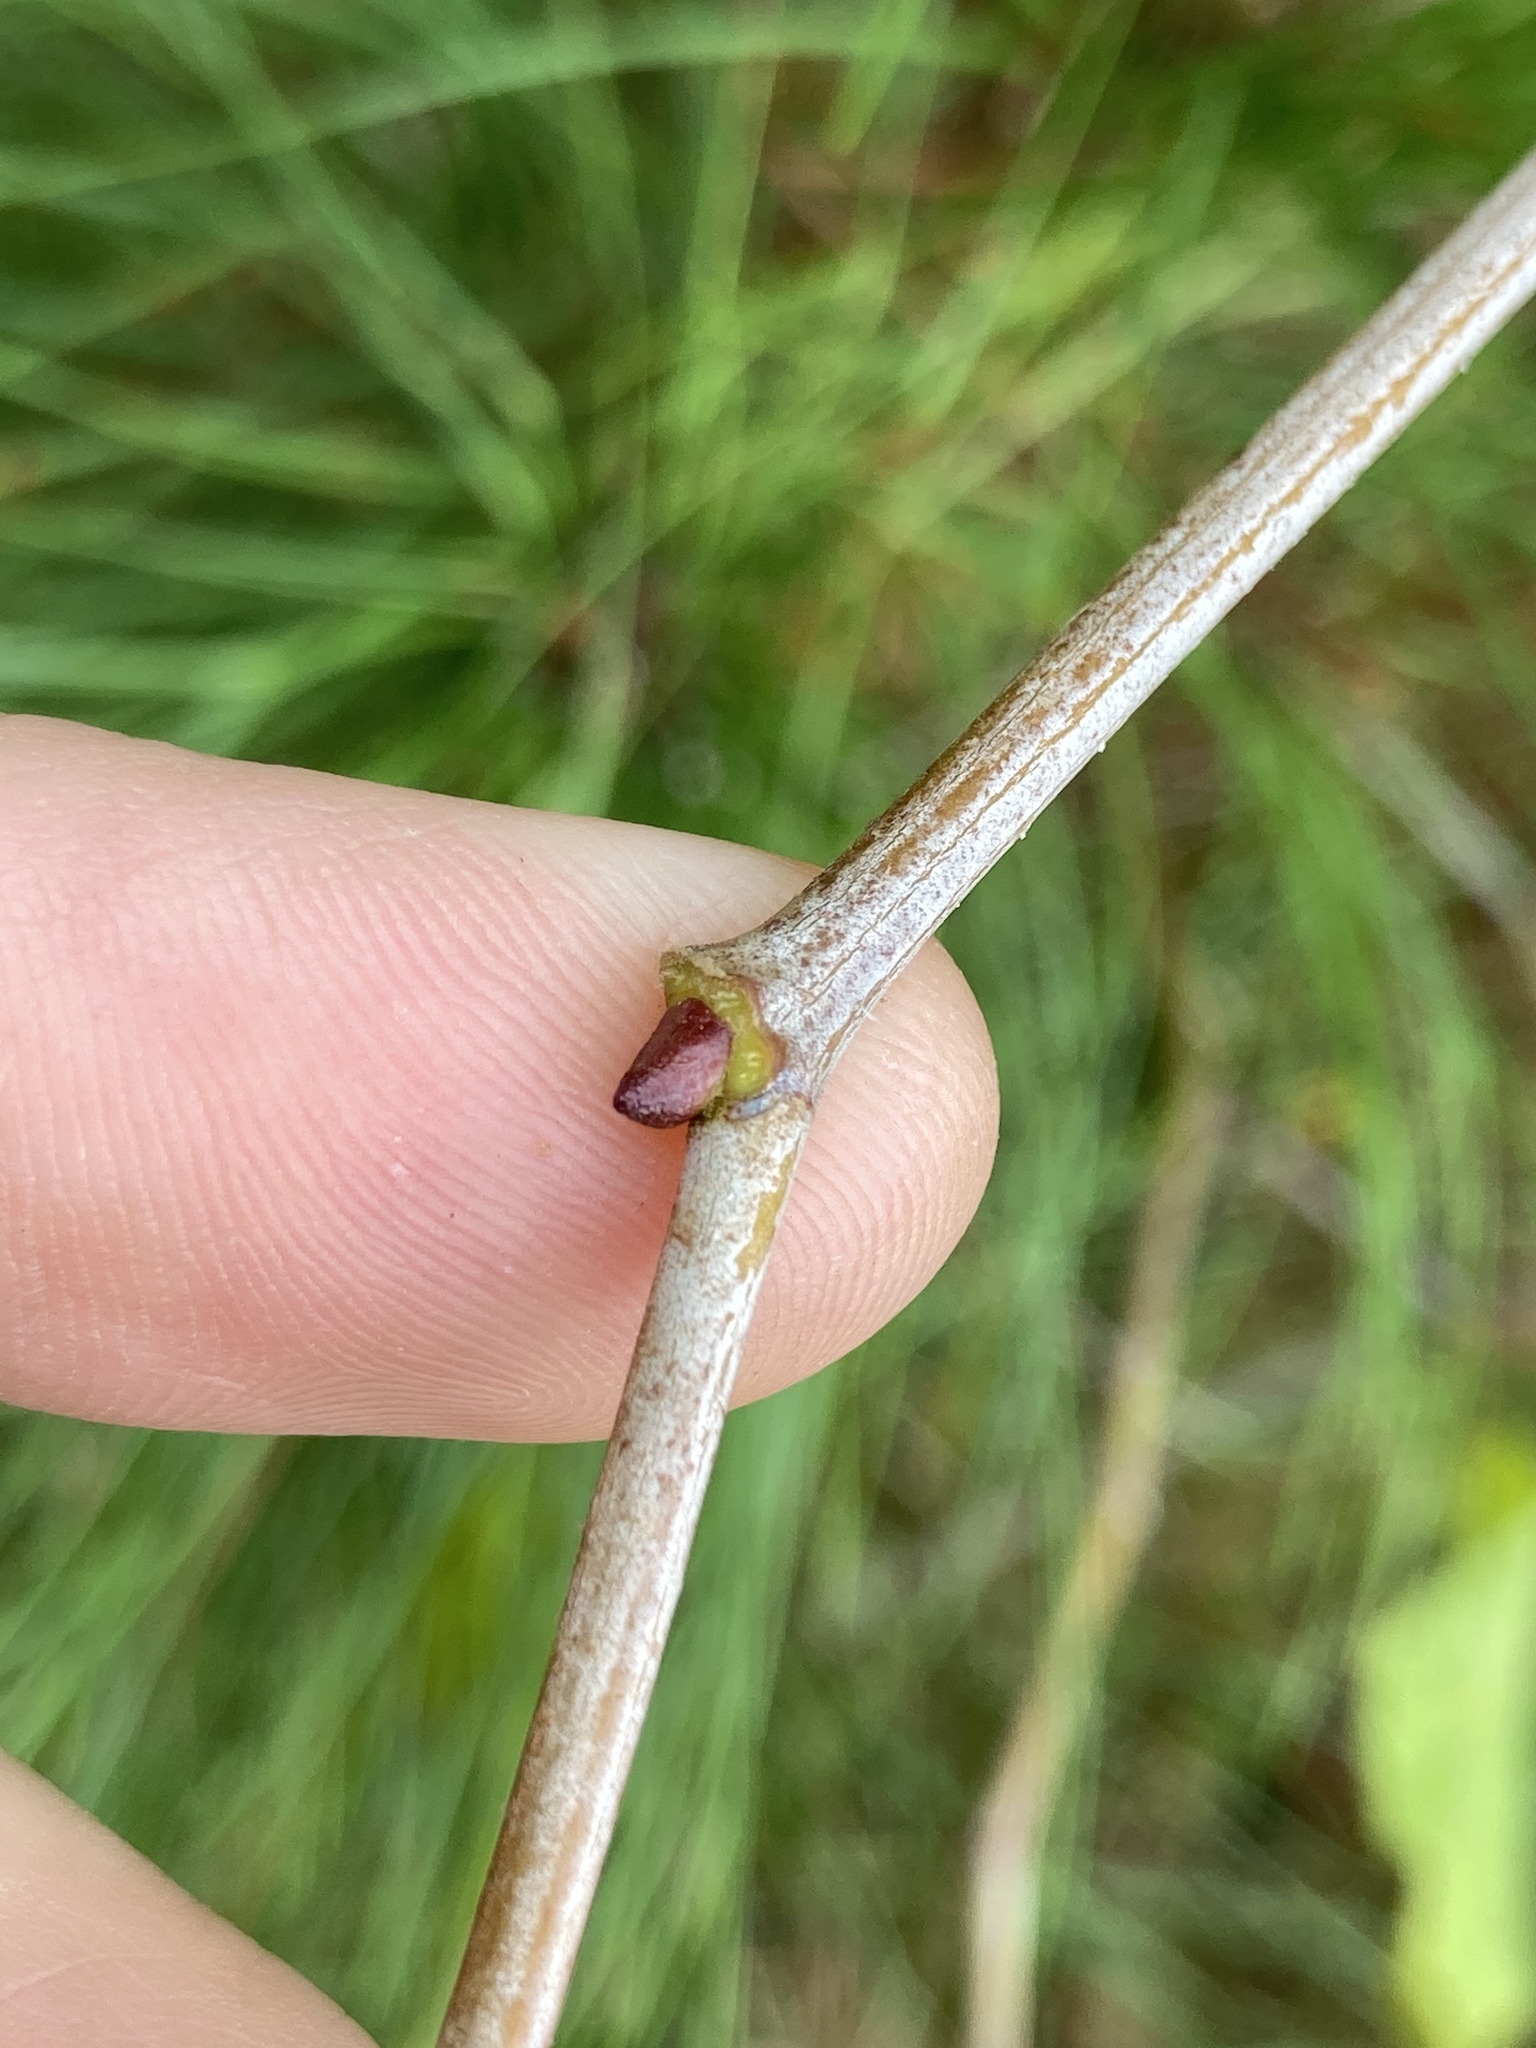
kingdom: Plantae
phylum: Tracheophyta
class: Magnoliopsida
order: Proteales
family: Platanaceae
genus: Platanus
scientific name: Platanus occidentalis
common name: American sycamore
